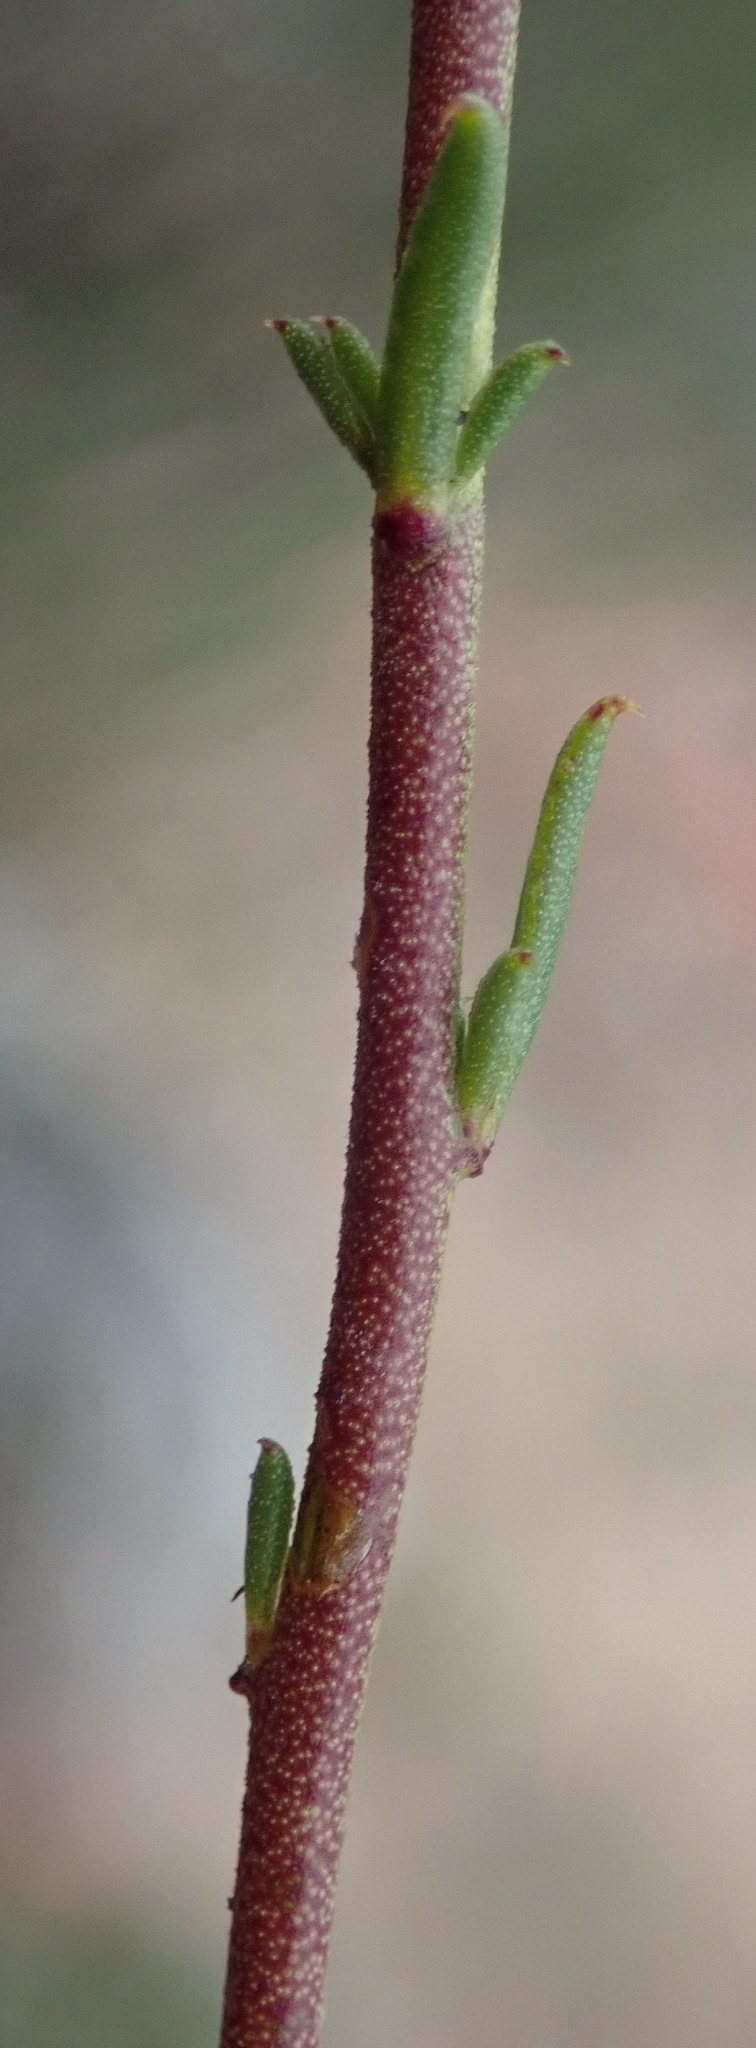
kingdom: Plantae
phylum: Tracheophyta
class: Magnoliopsida
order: Fabales
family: Polygalaceae
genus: Muraltia
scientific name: Muraltia dispersa
